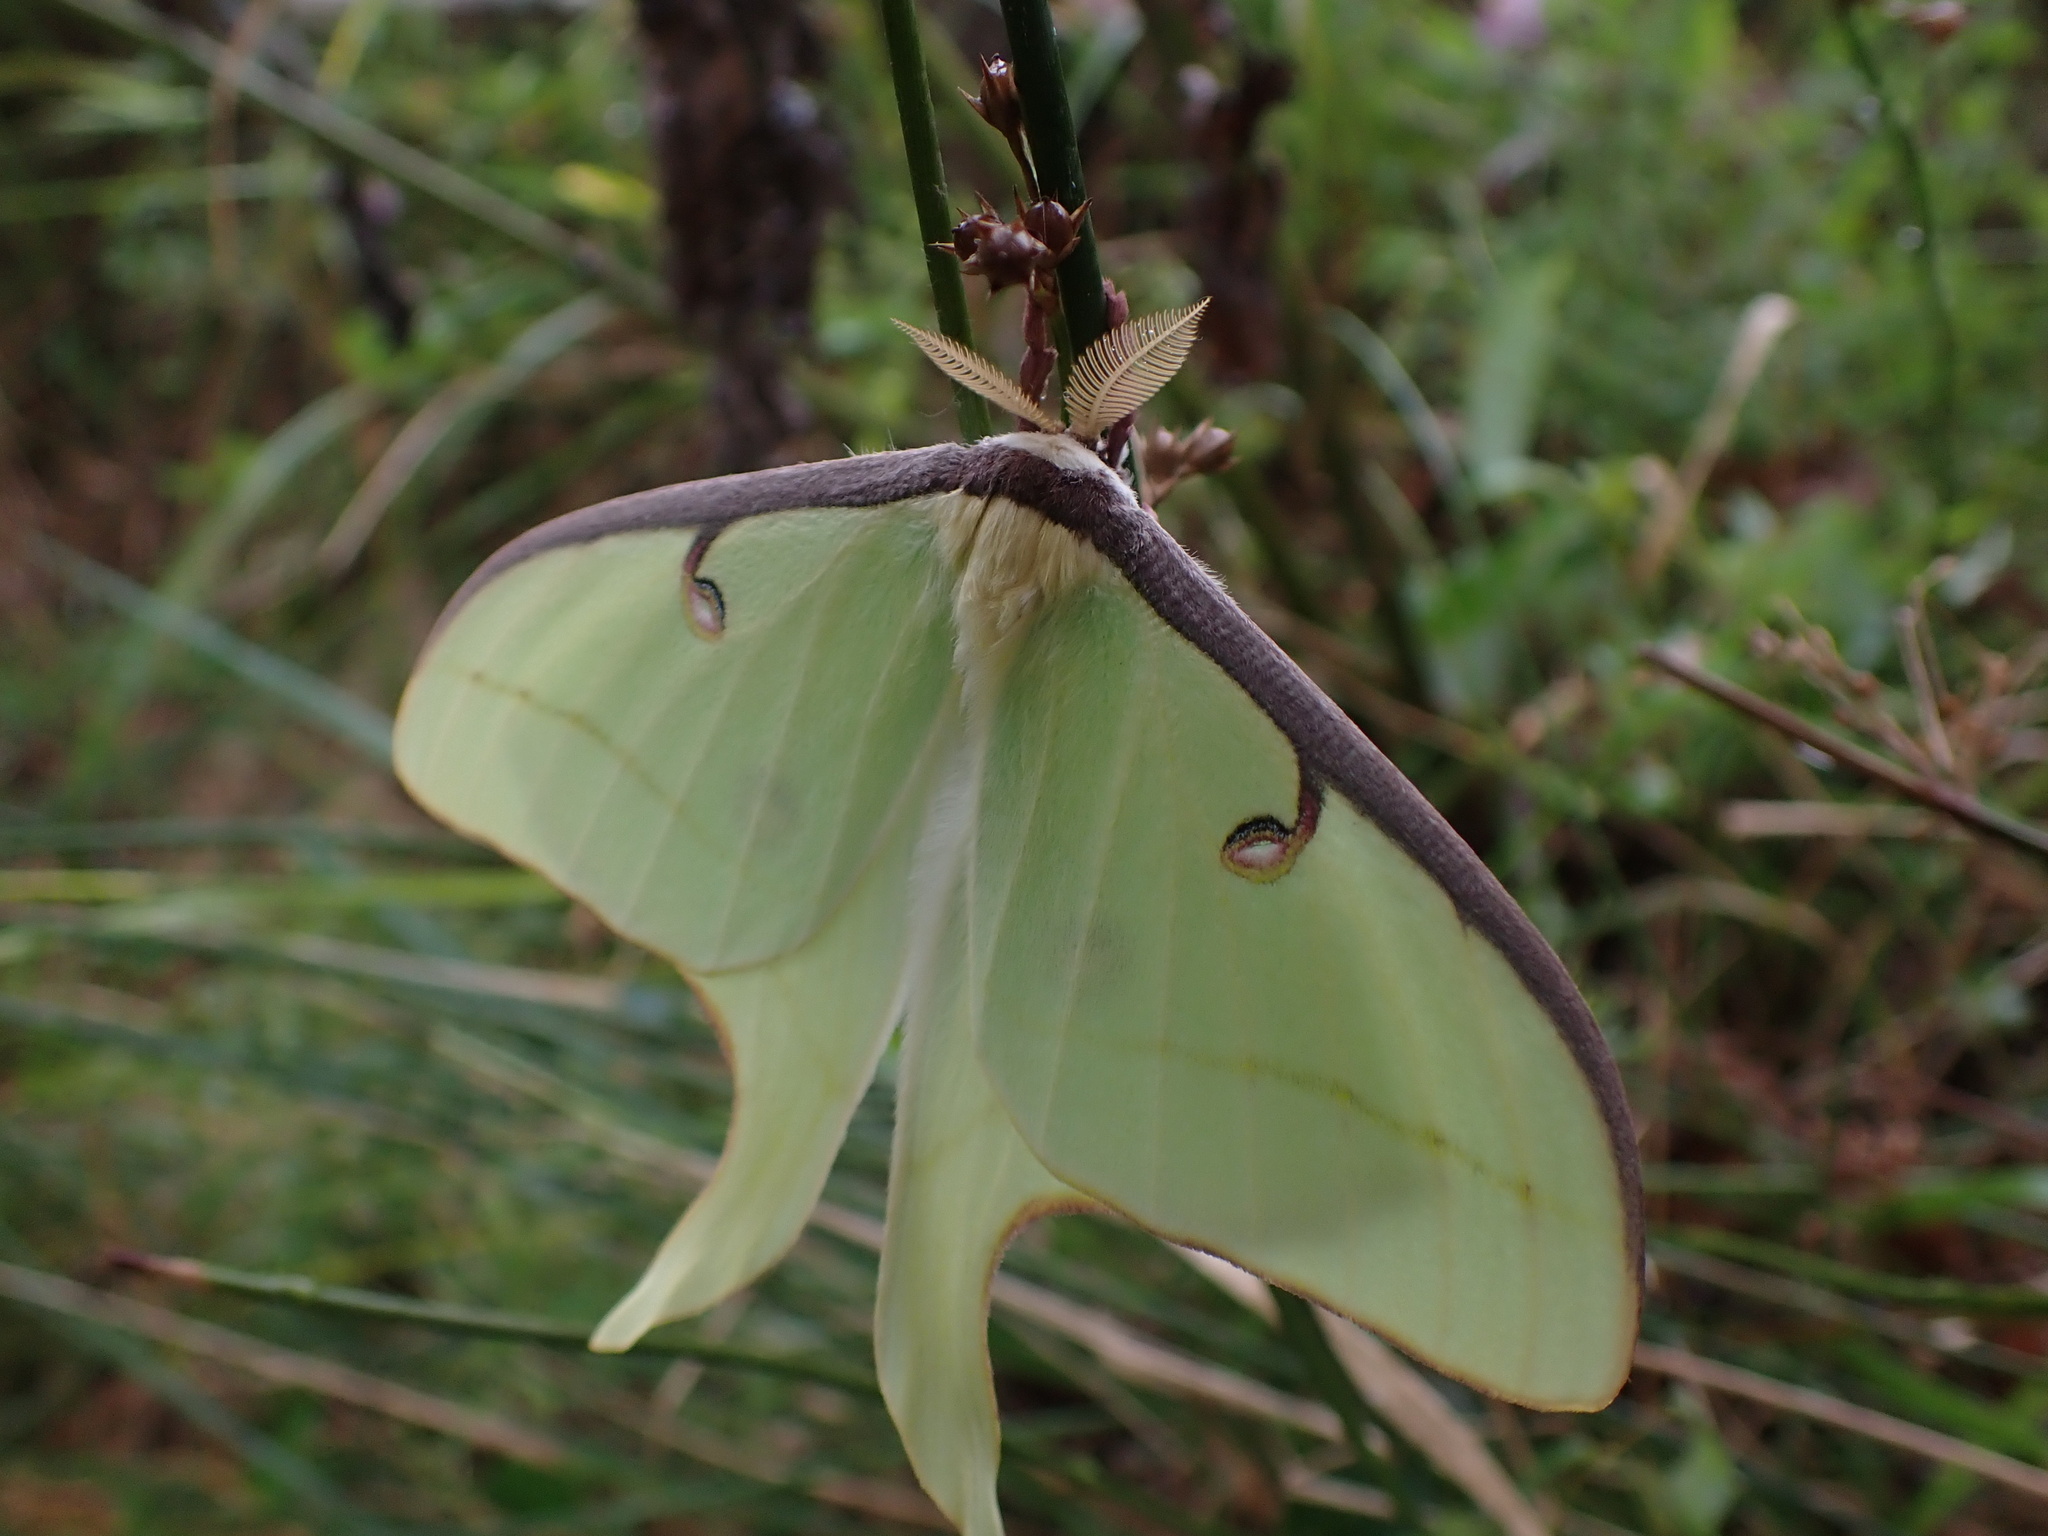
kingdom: Animalia
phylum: Arthropoda
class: Insecta
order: Lepidoptera
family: Saturniidae
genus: Actias
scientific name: Actias luna
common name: Luna moth
